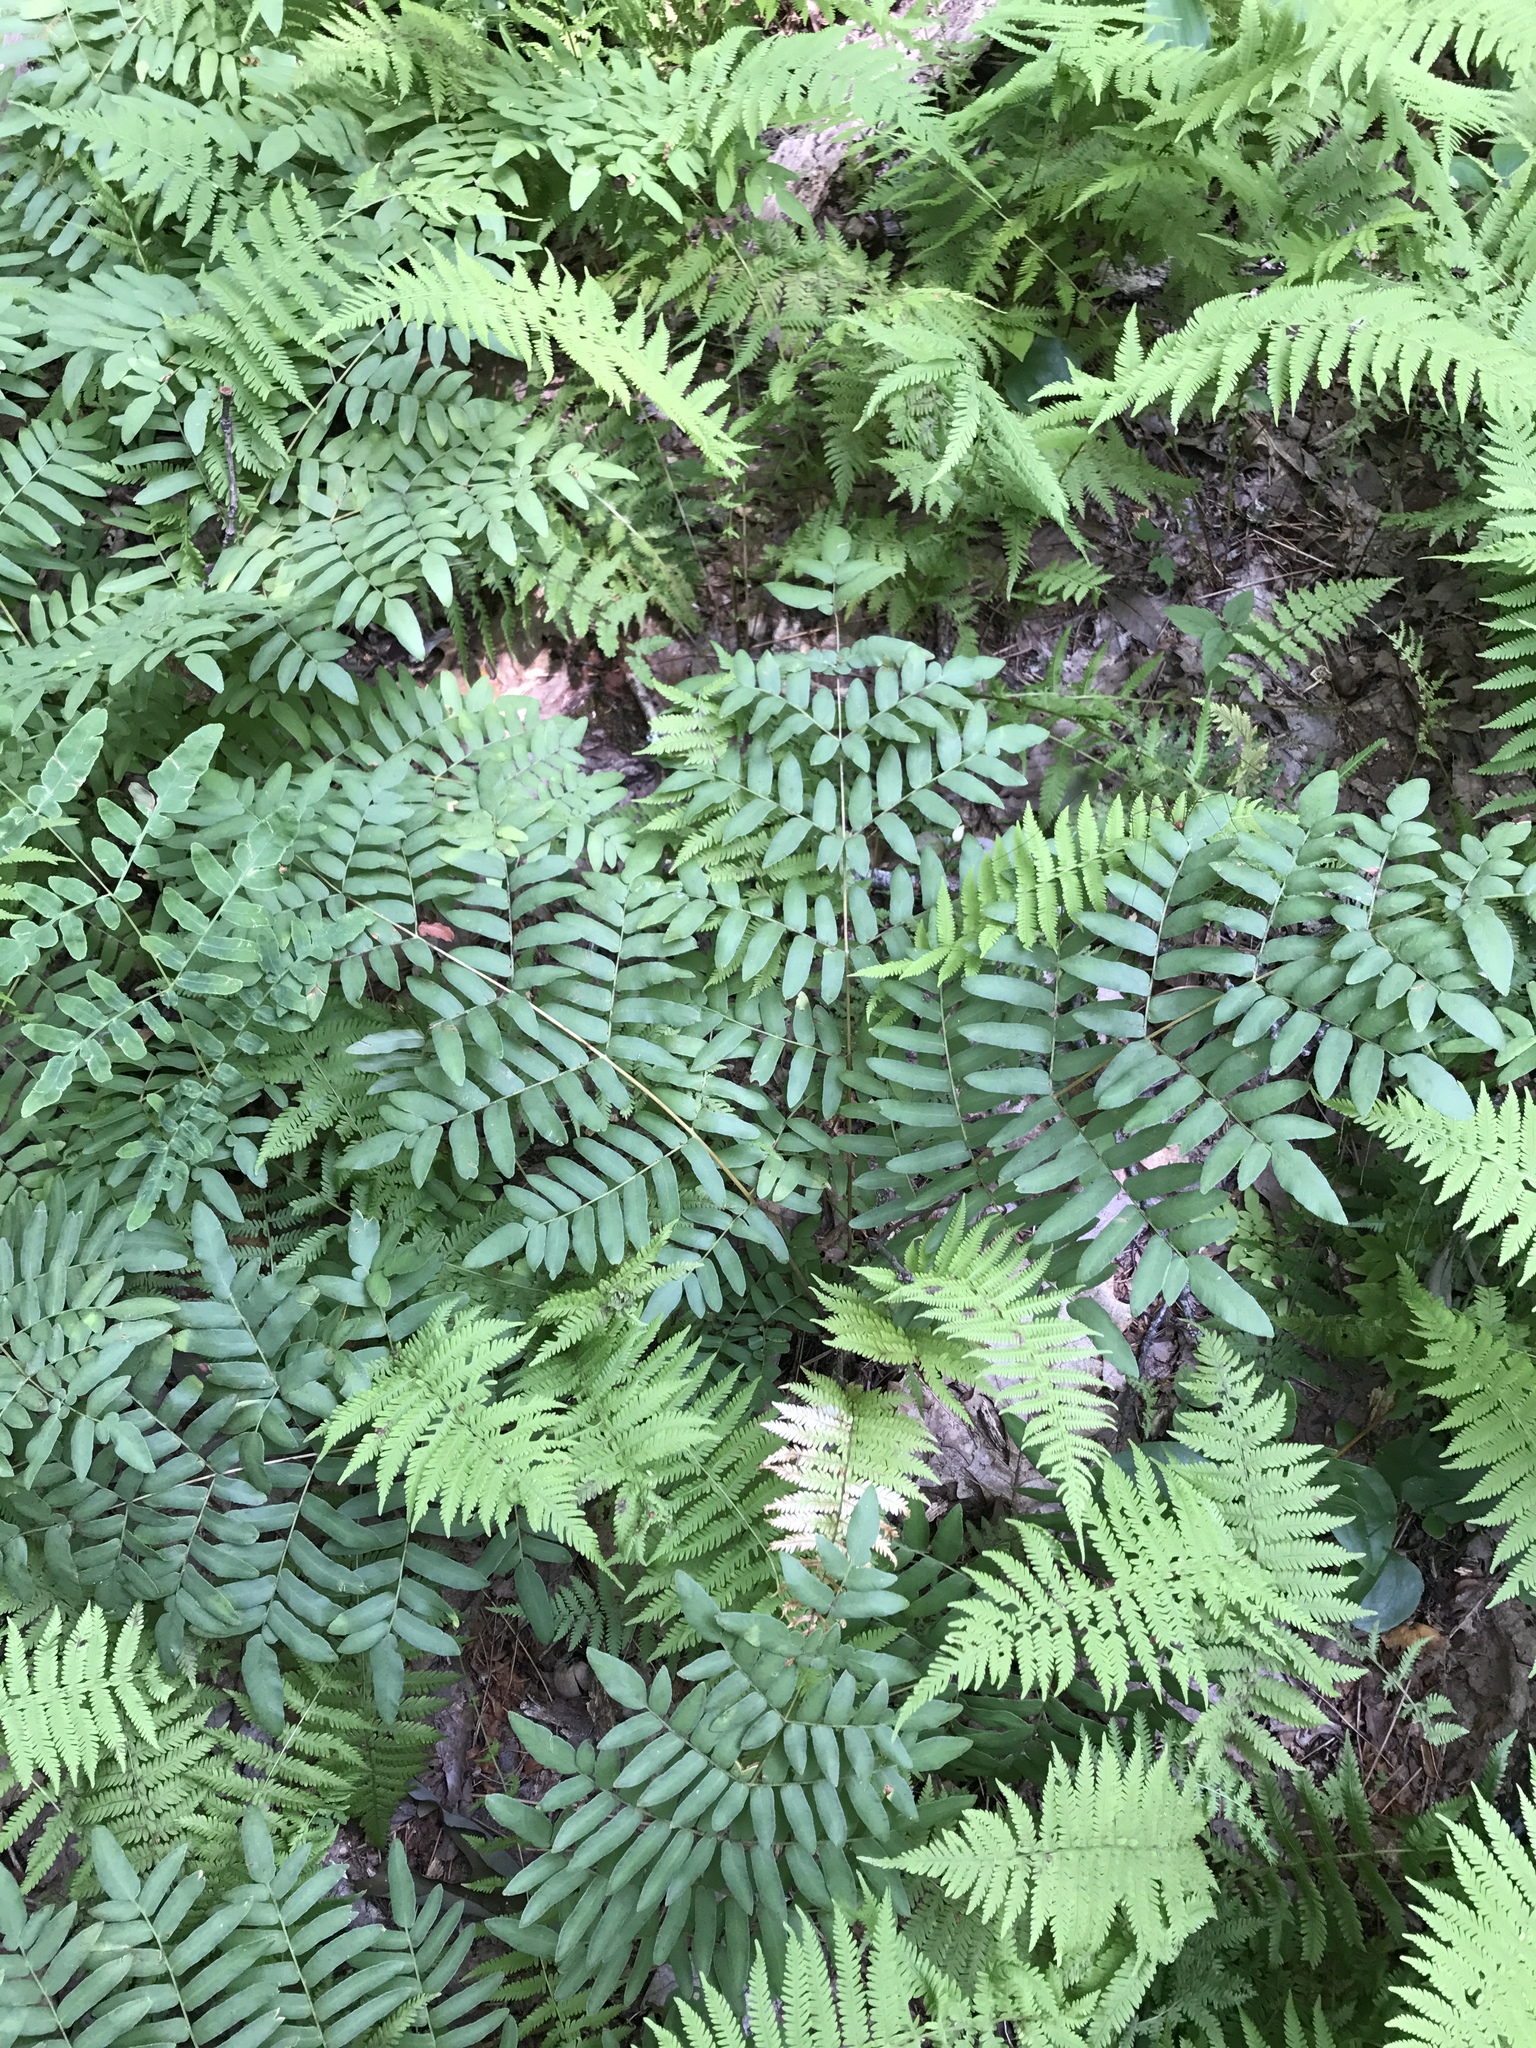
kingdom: Plantae
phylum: Tracheophyta
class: Polypodiopsida
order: Osmundales
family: Osmundaceae
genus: Osmunda
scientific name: Osmunda spectabilis
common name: American royal fern
